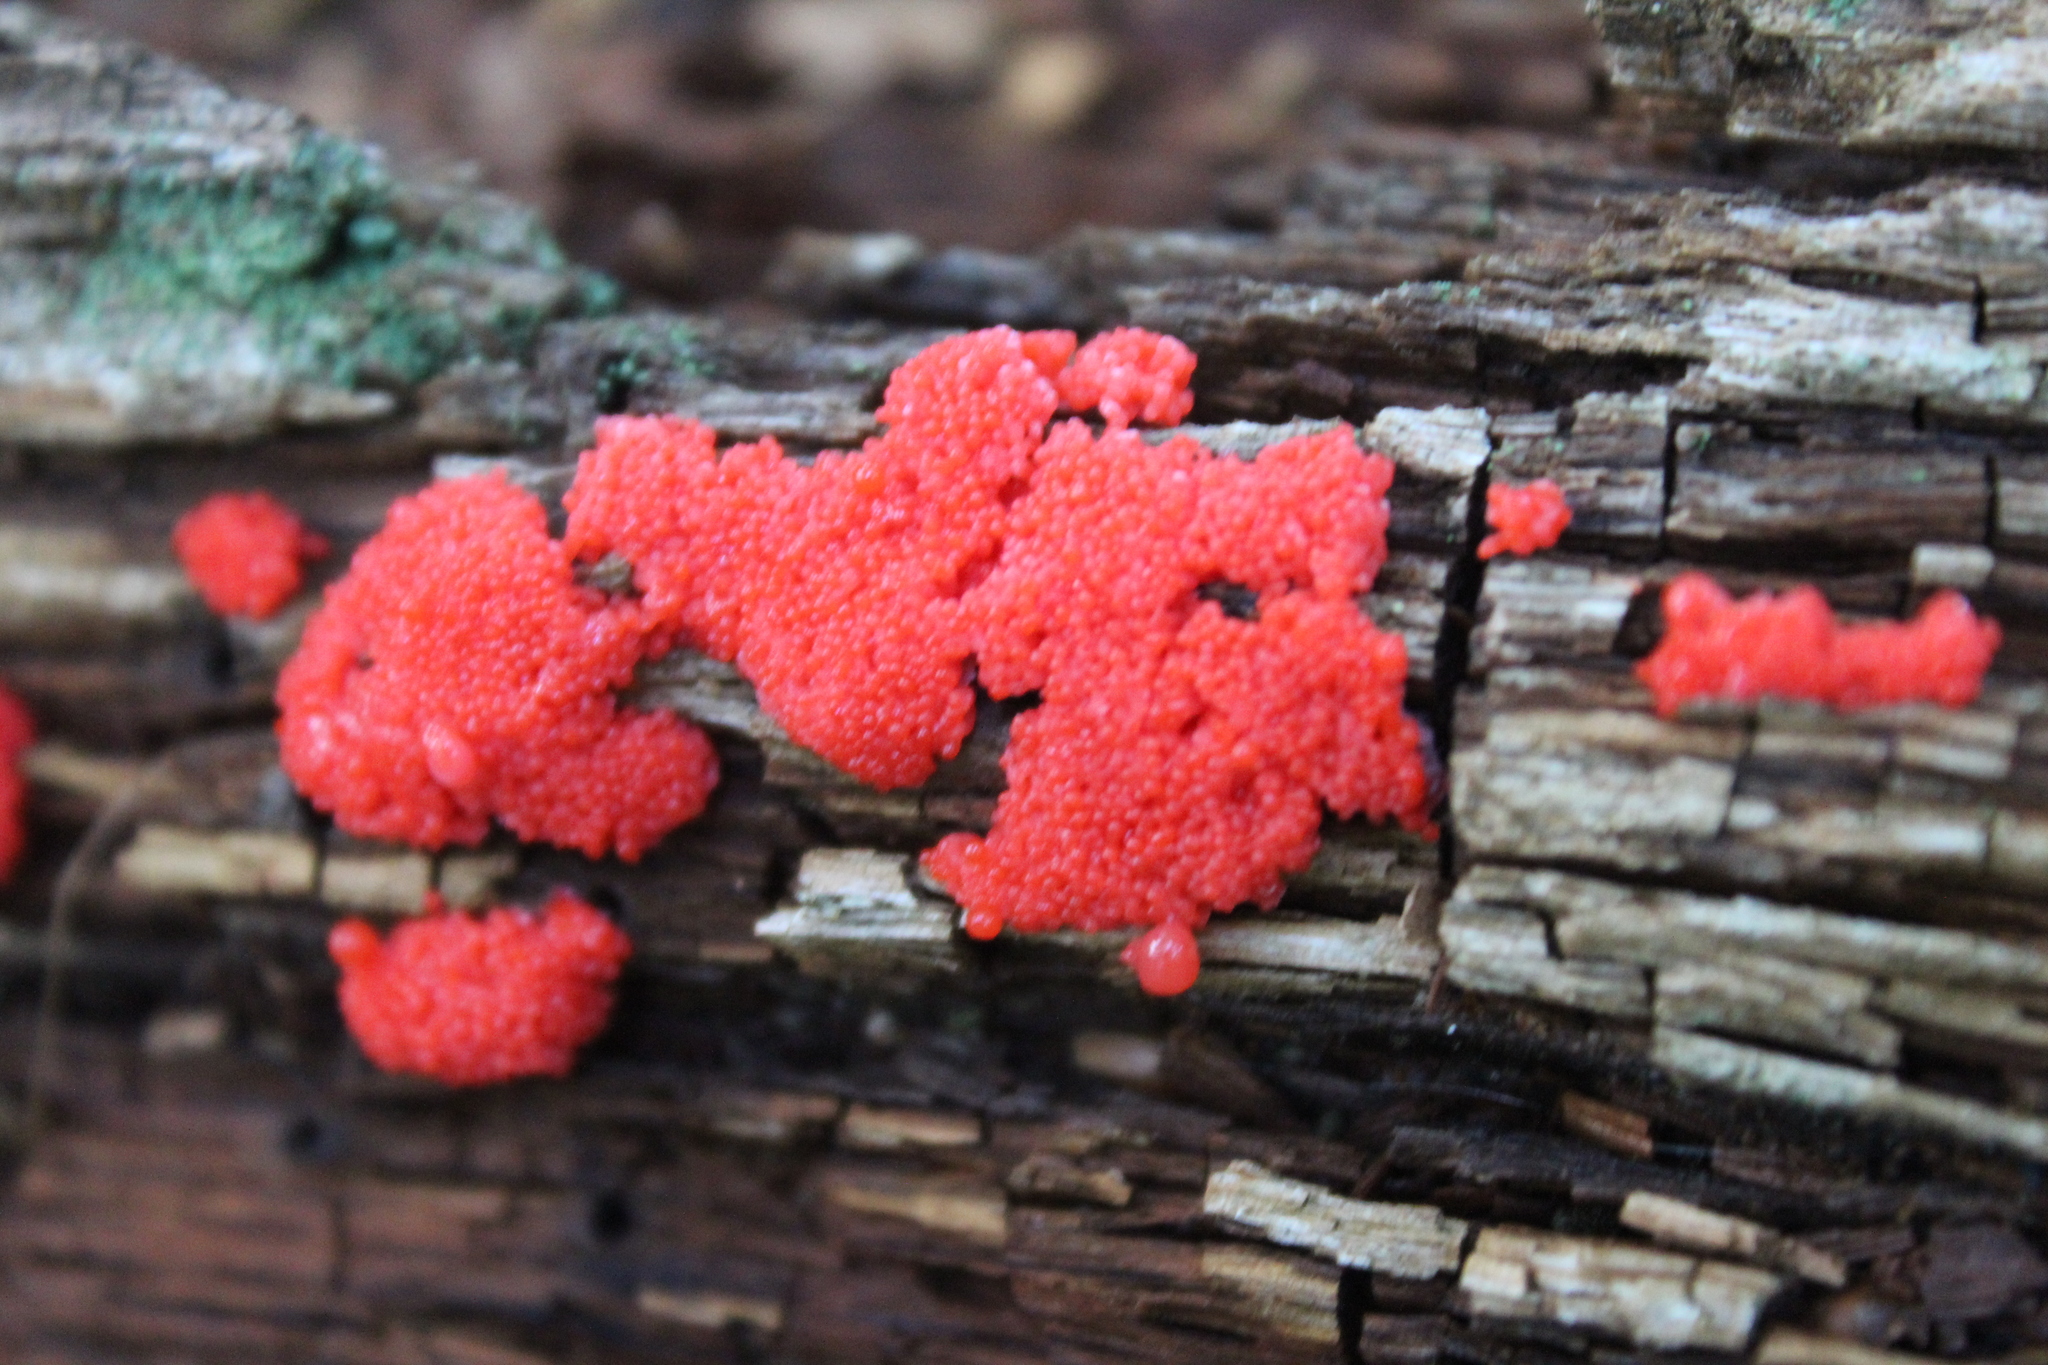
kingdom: Protozoa
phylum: Mycetozoa
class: Myxomycetes
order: Cribrariales
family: Tubiferaceae
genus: Tubifera
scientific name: Tubifera ferruginosa
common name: Red raspberry slime mold
